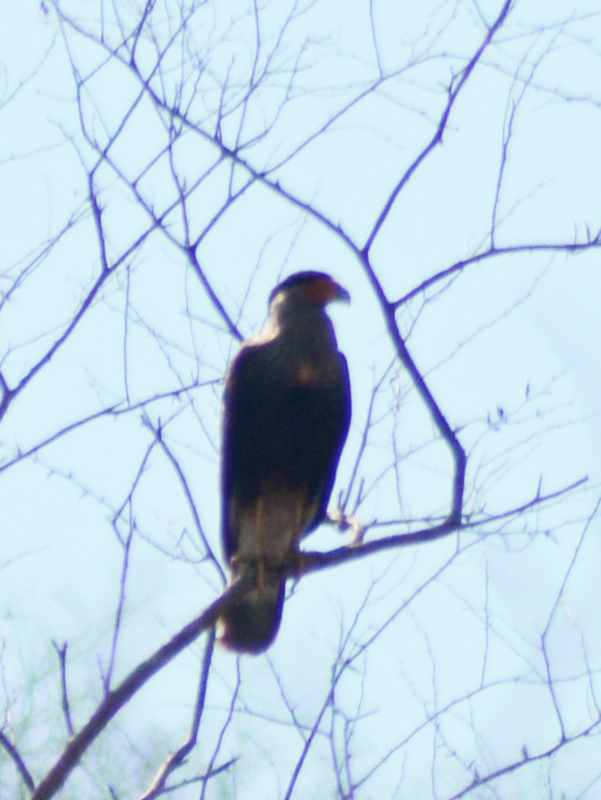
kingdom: Animalia
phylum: Chordata
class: Aves
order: Falconiformes
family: Falconidae
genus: Caracara
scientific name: Caracara plancus
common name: Southern caracara
